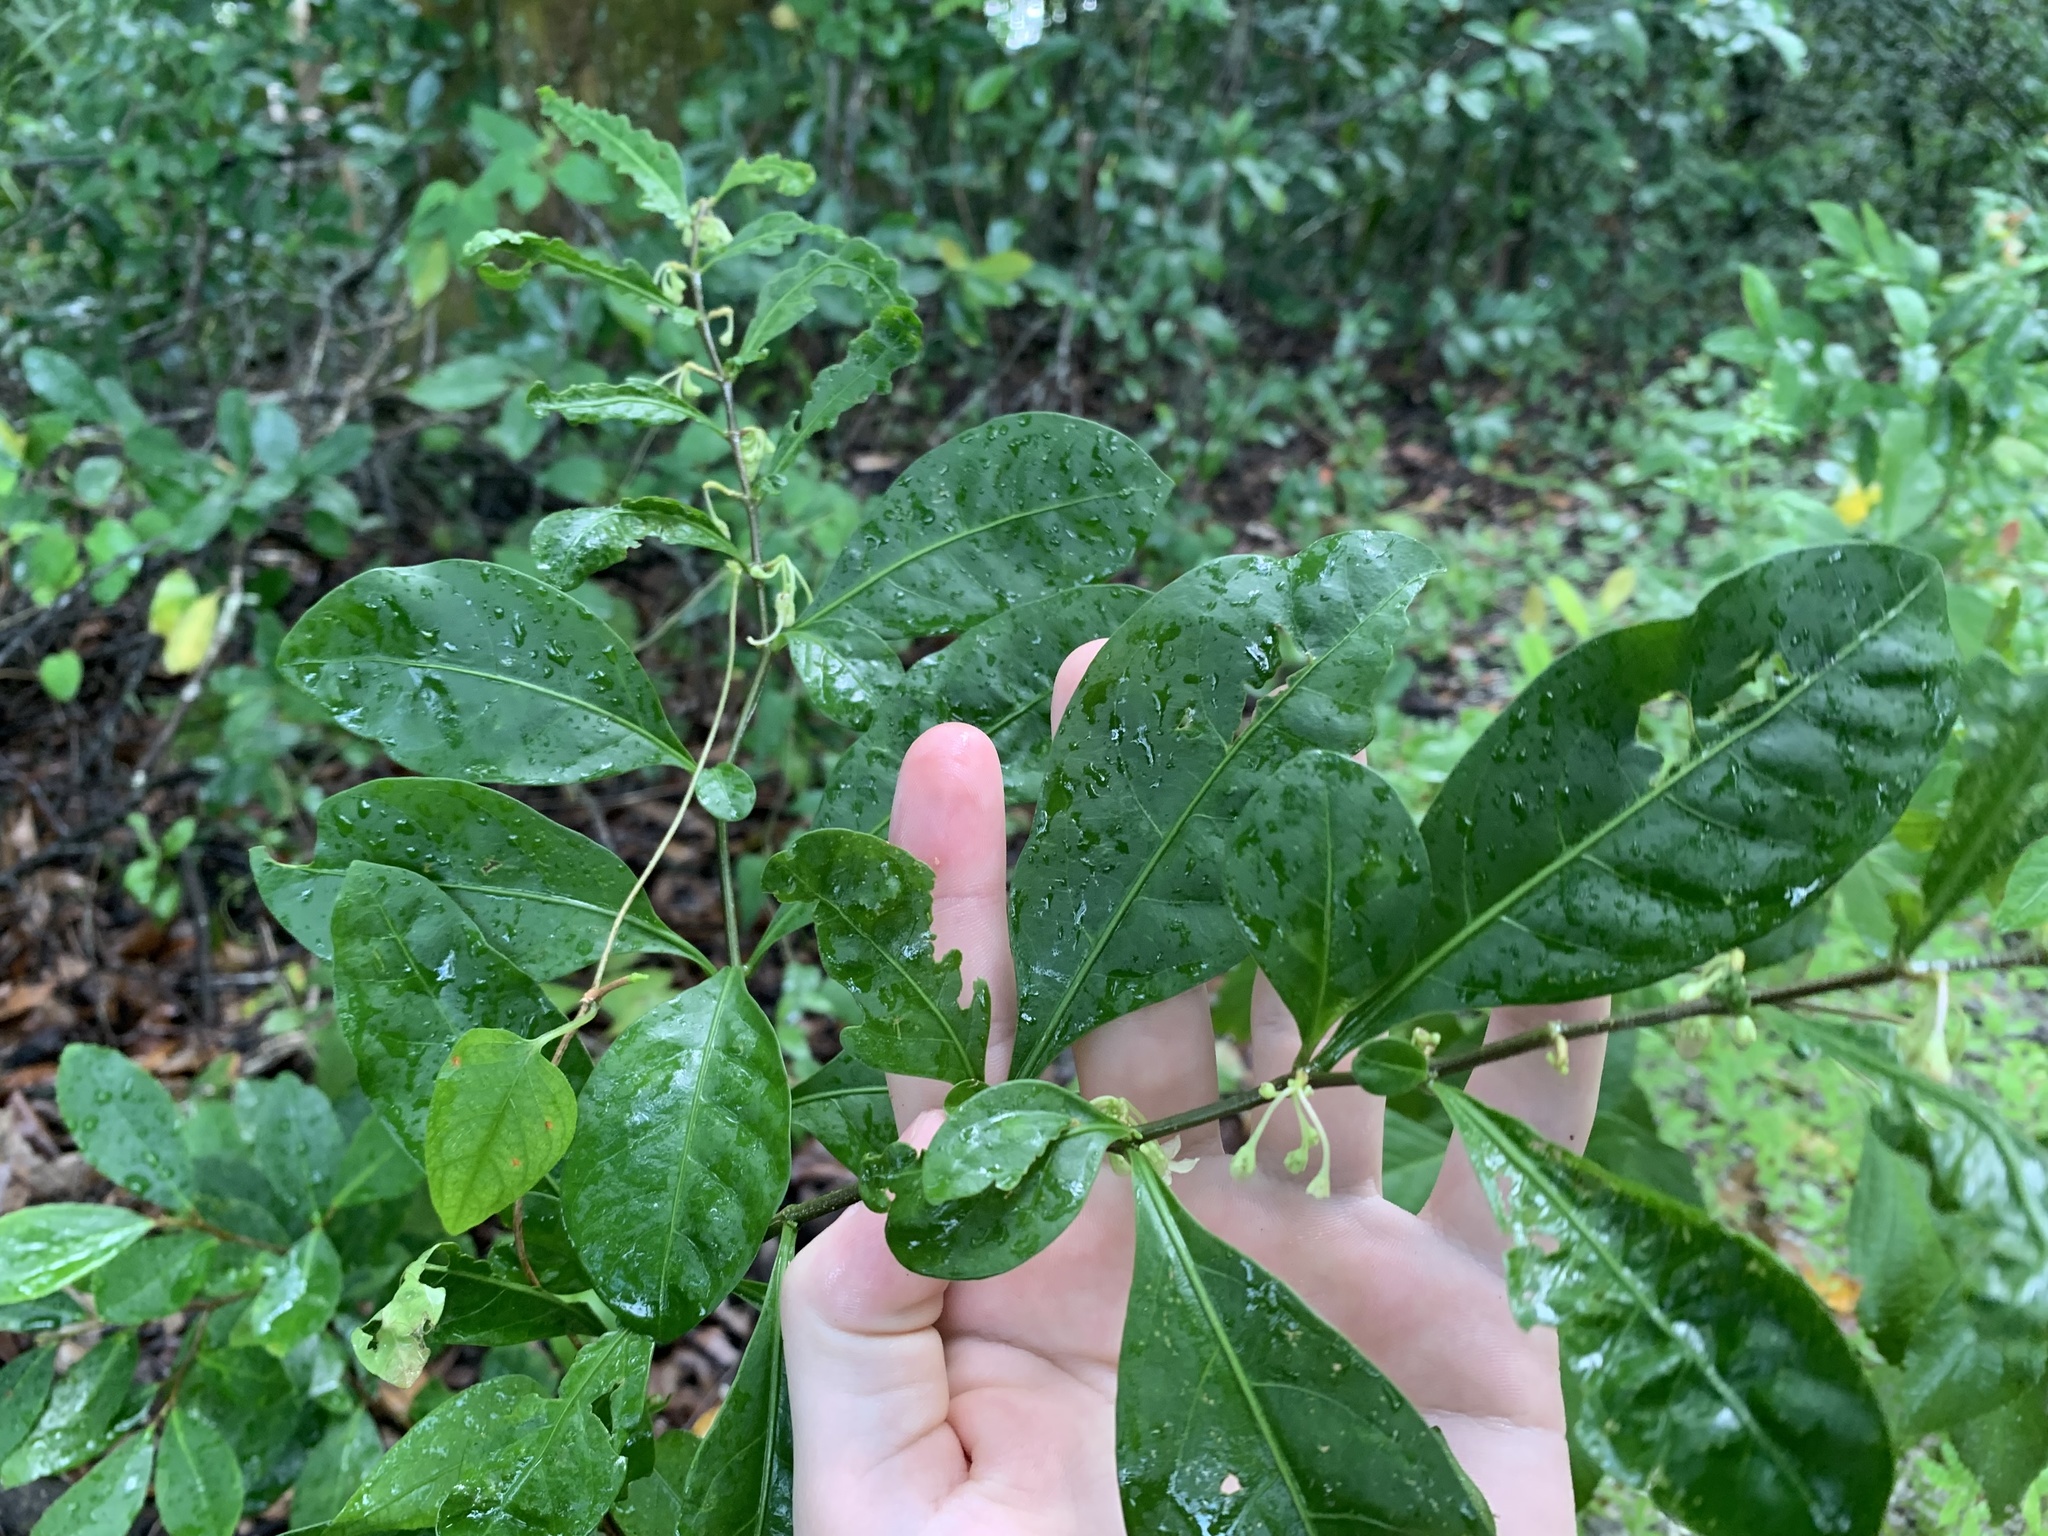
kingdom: Plantae
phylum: Tracheophyta
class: Magnoliopsida
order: Solanales
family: Solanaceae
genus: Solanum
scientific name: Solanum diphyllum
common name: Twoleaf nightshade
